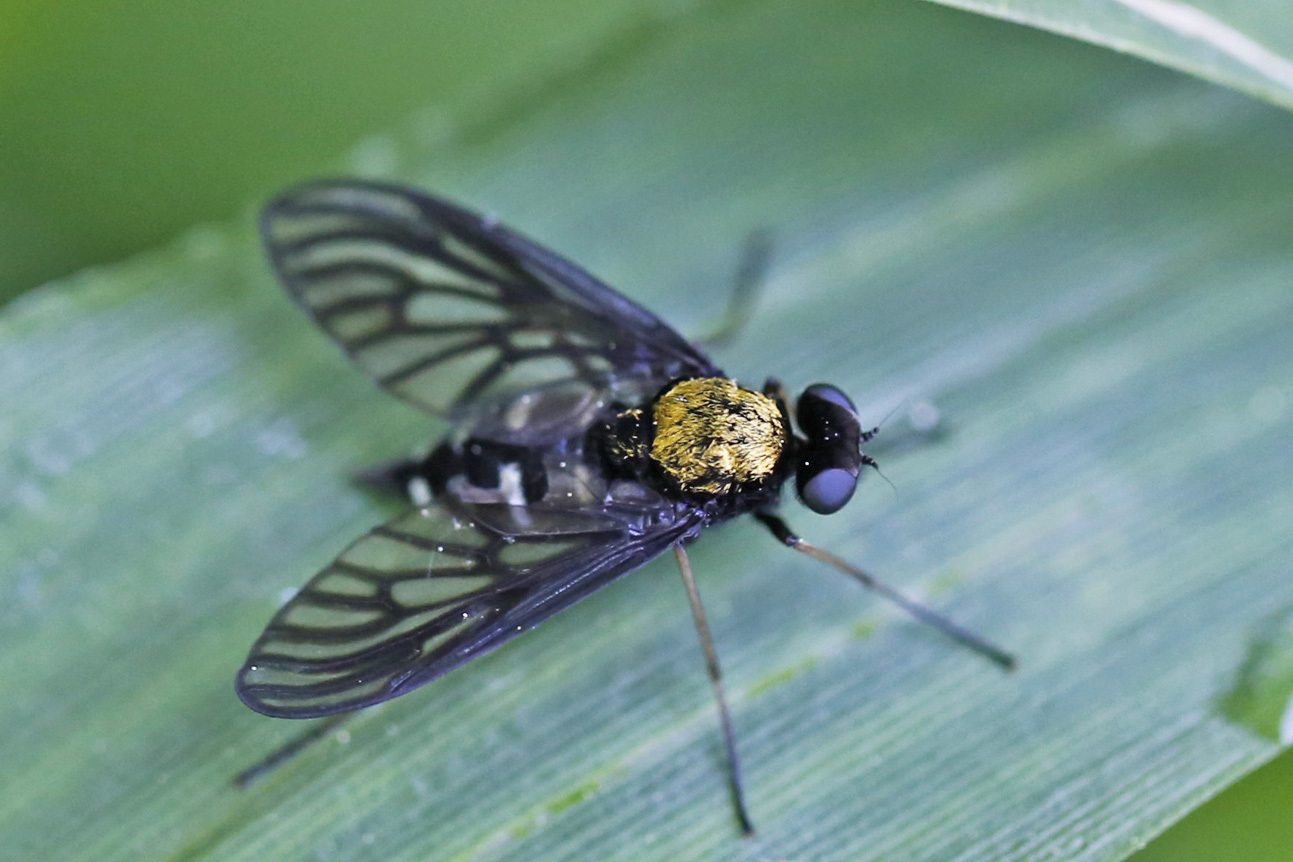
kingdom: Animalia
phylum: Arthropoda
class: Insecta
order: Diptera
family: Rhagionidae
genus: Chrysopilus
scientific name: Chrysopilus thoracicus
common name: Golden-backed snipe fly
